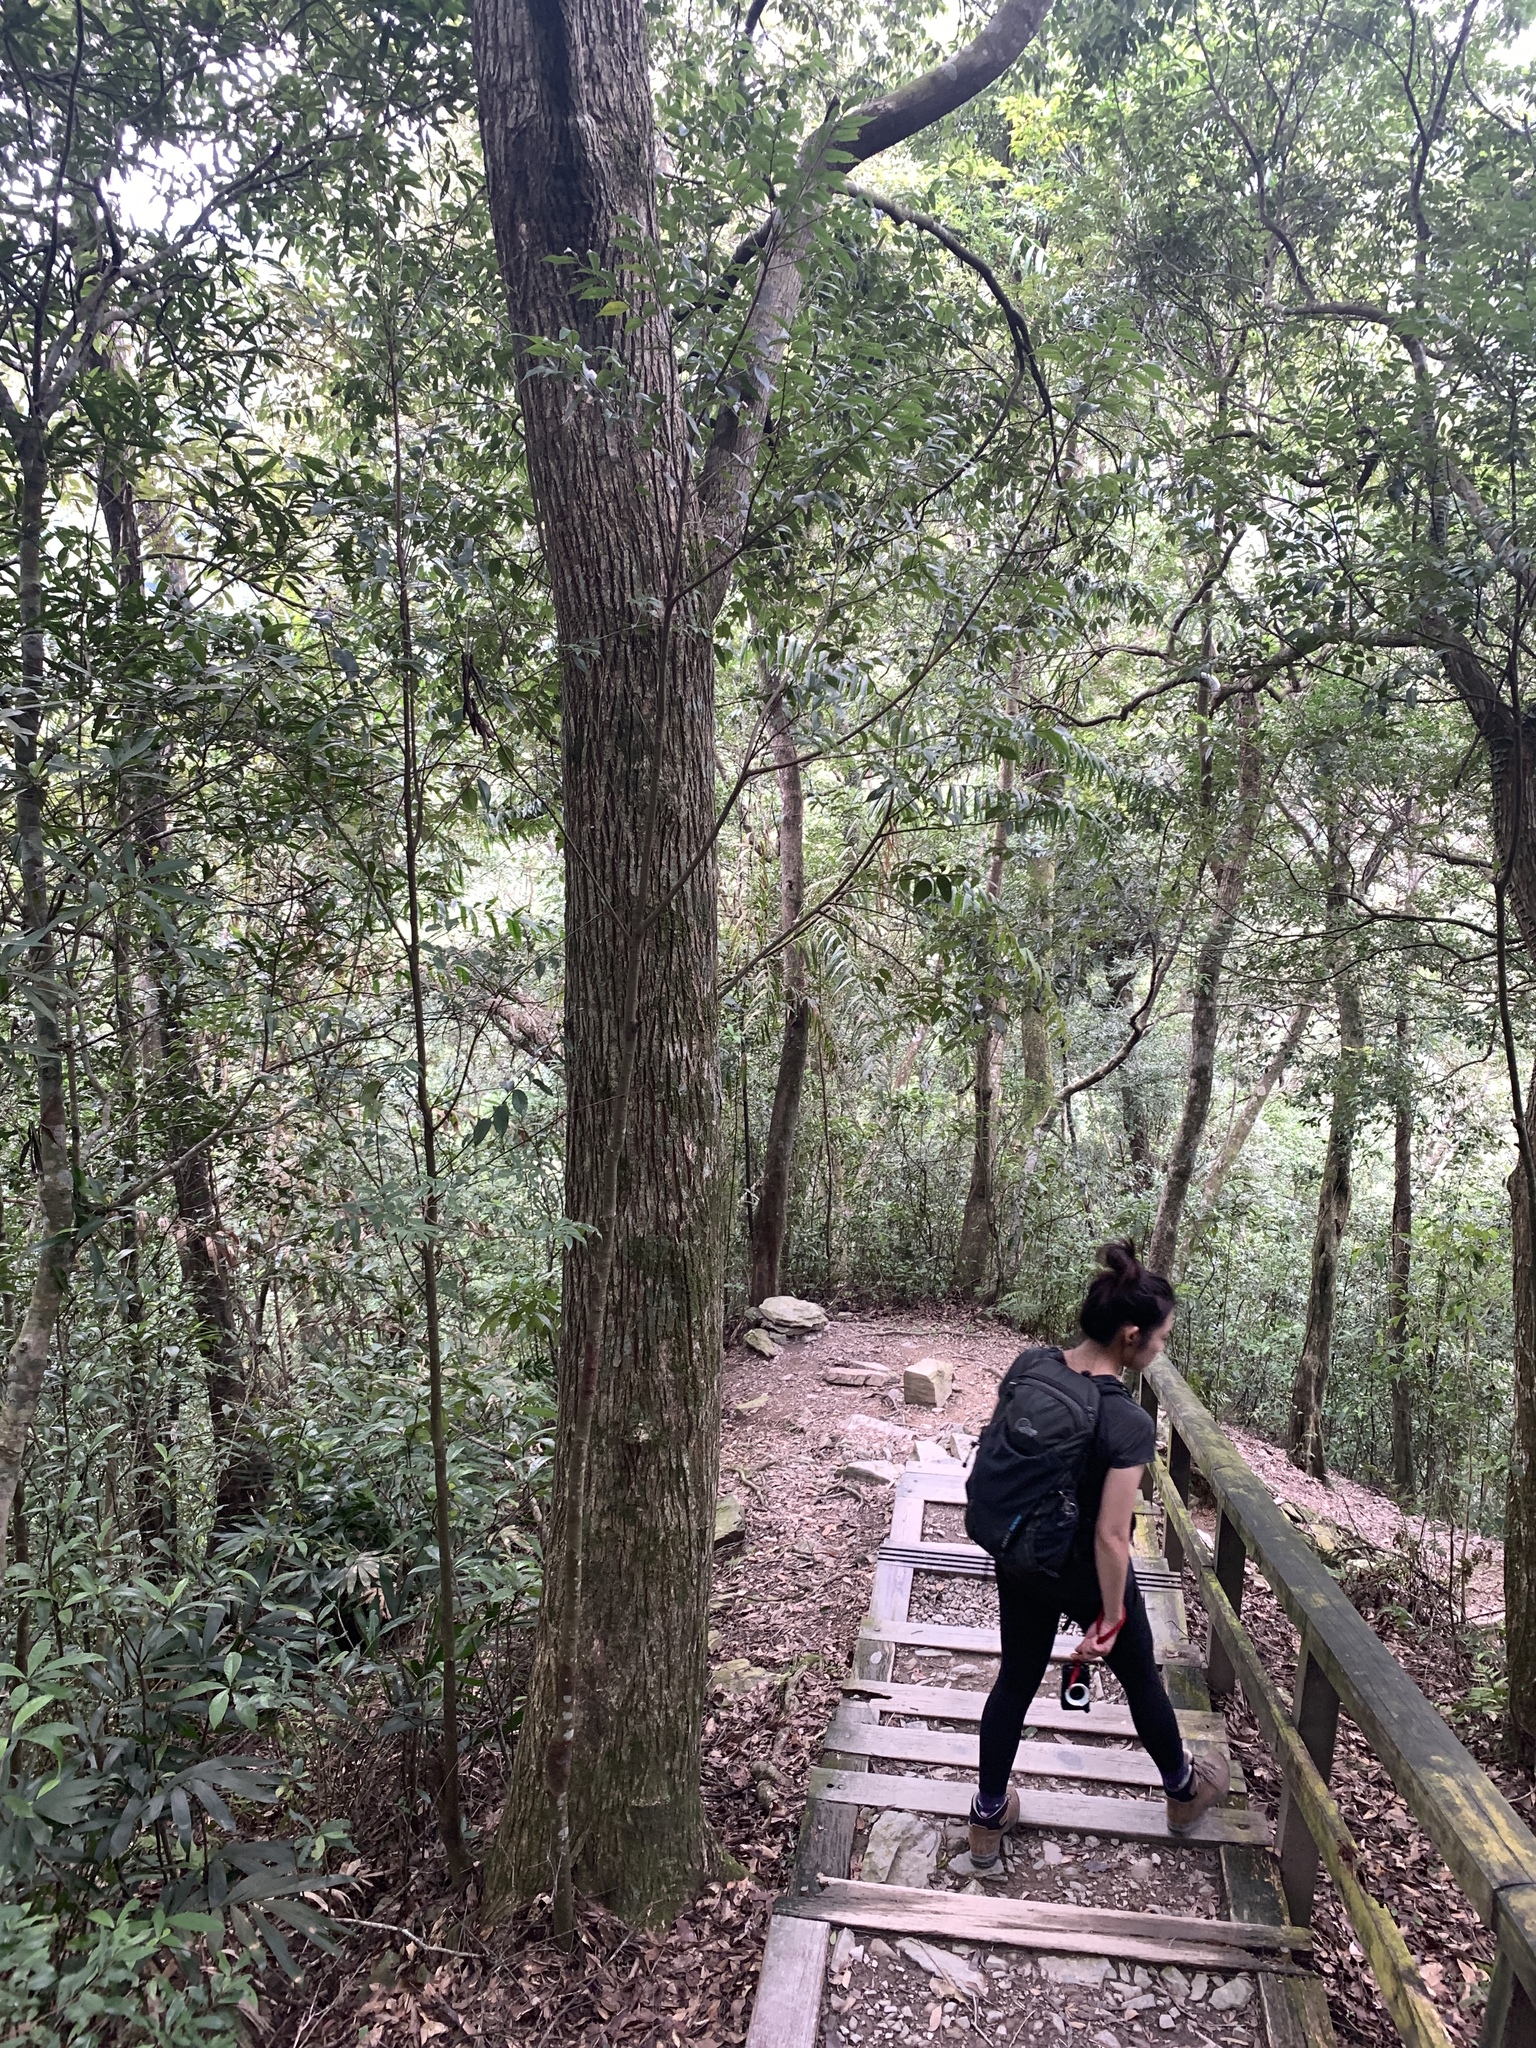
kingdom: Plantae
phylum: Tracheophyta
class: Magnoliopsida
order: Fagales
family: Fagaceae
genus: Lithocarpus
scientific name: Lithocarpus uraianus
